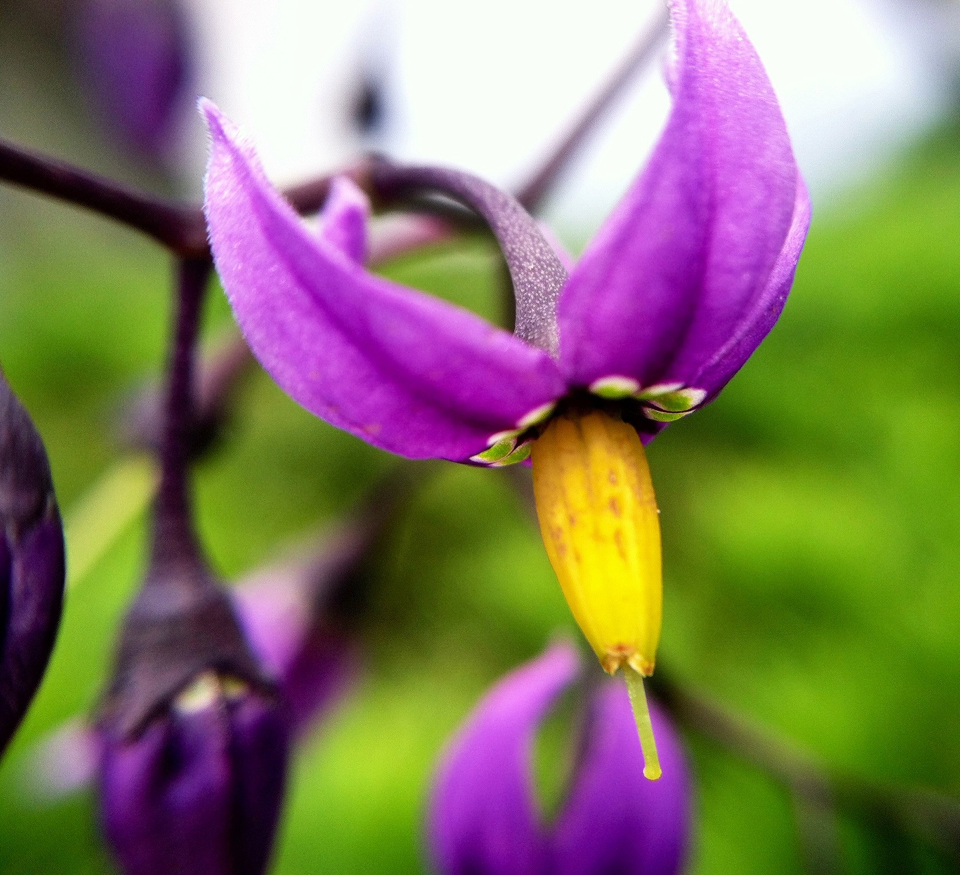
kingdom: Plantae
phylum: Tracheophyta
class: Magnoliopsida
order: Solanales
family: Solanaceae
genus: Solanum
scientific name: Solanum dulcamara
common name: Climbing nightshade
